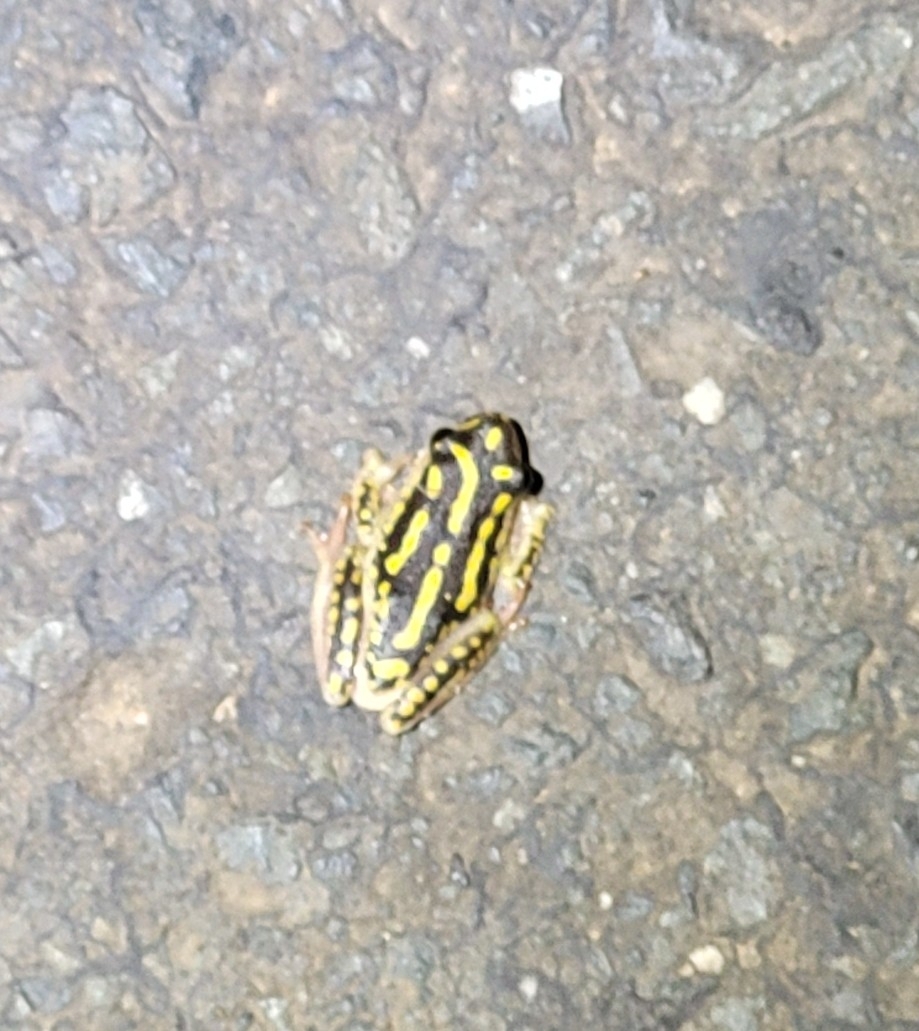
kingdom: Animalia
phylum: Chordata
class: Amphibia
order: Anura
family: Hyperoliidae
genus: Hyperolius
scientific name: Hyperolius marmoratus
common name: Painted reed frog
